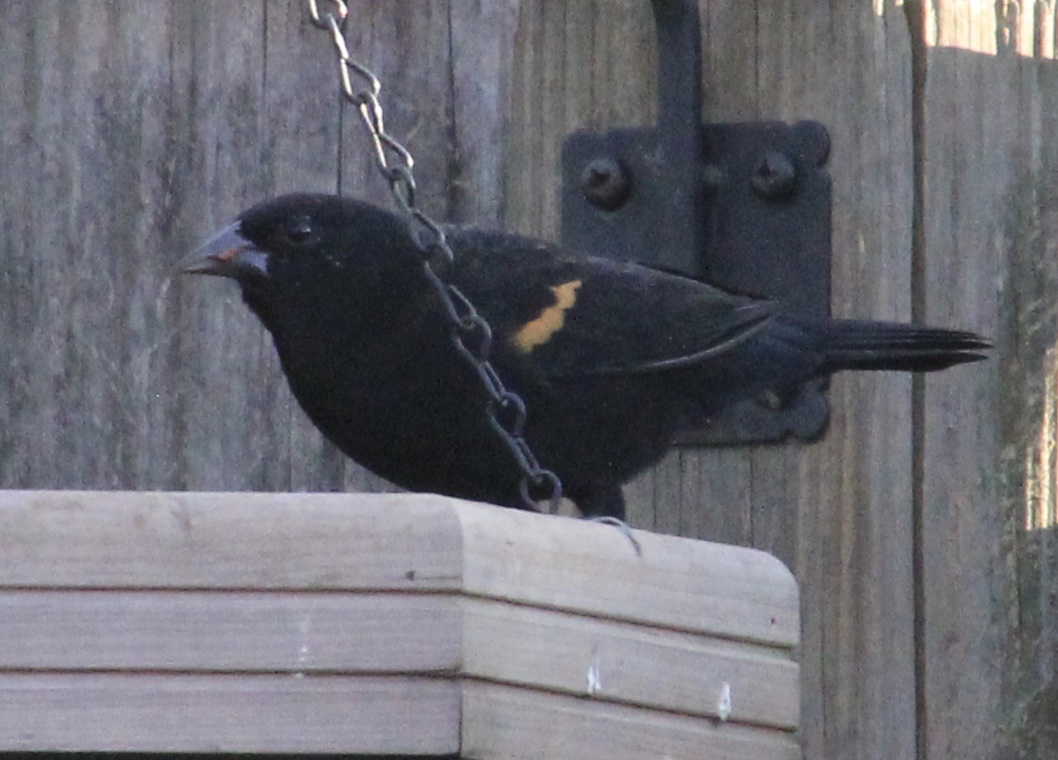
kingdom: Animalia
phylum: Chordata
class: Aves
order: Passeriformes
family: Icteridae
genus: Agelaius
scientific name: Agelaius phoeniceus
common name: Red-winged blackbird
